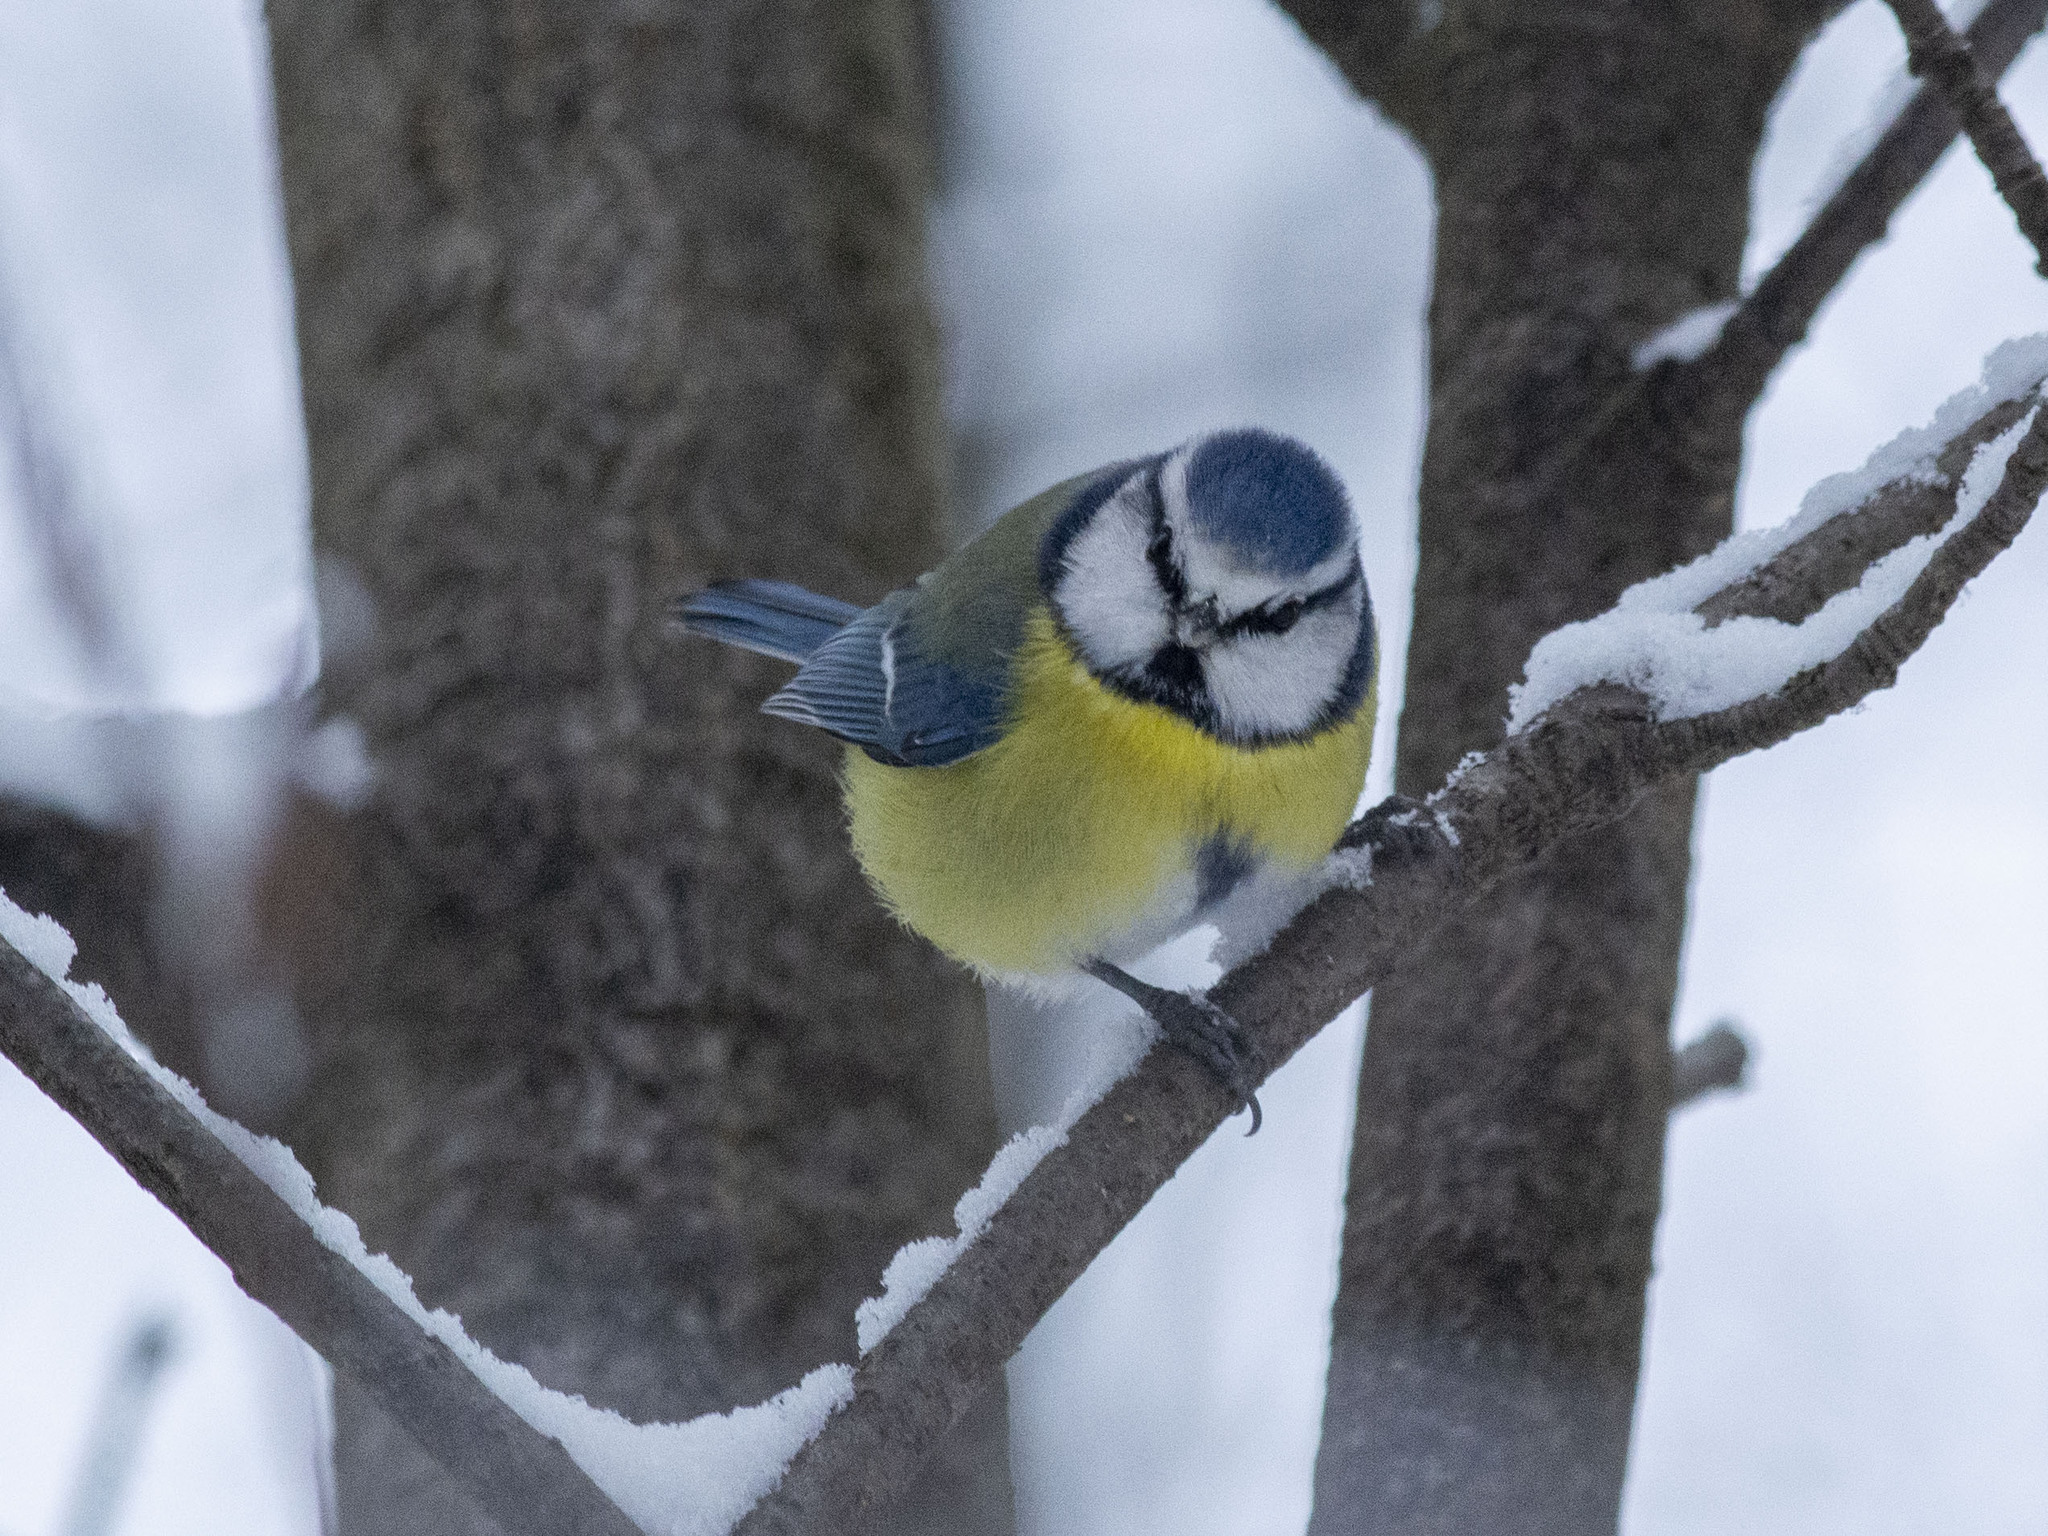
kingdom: Animalia
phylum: Chordata
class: Aves
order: Passeriformes
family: Paridae
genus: Cyanistes
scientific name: Cyanistes caeruleus
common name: Eurasian blue tit
